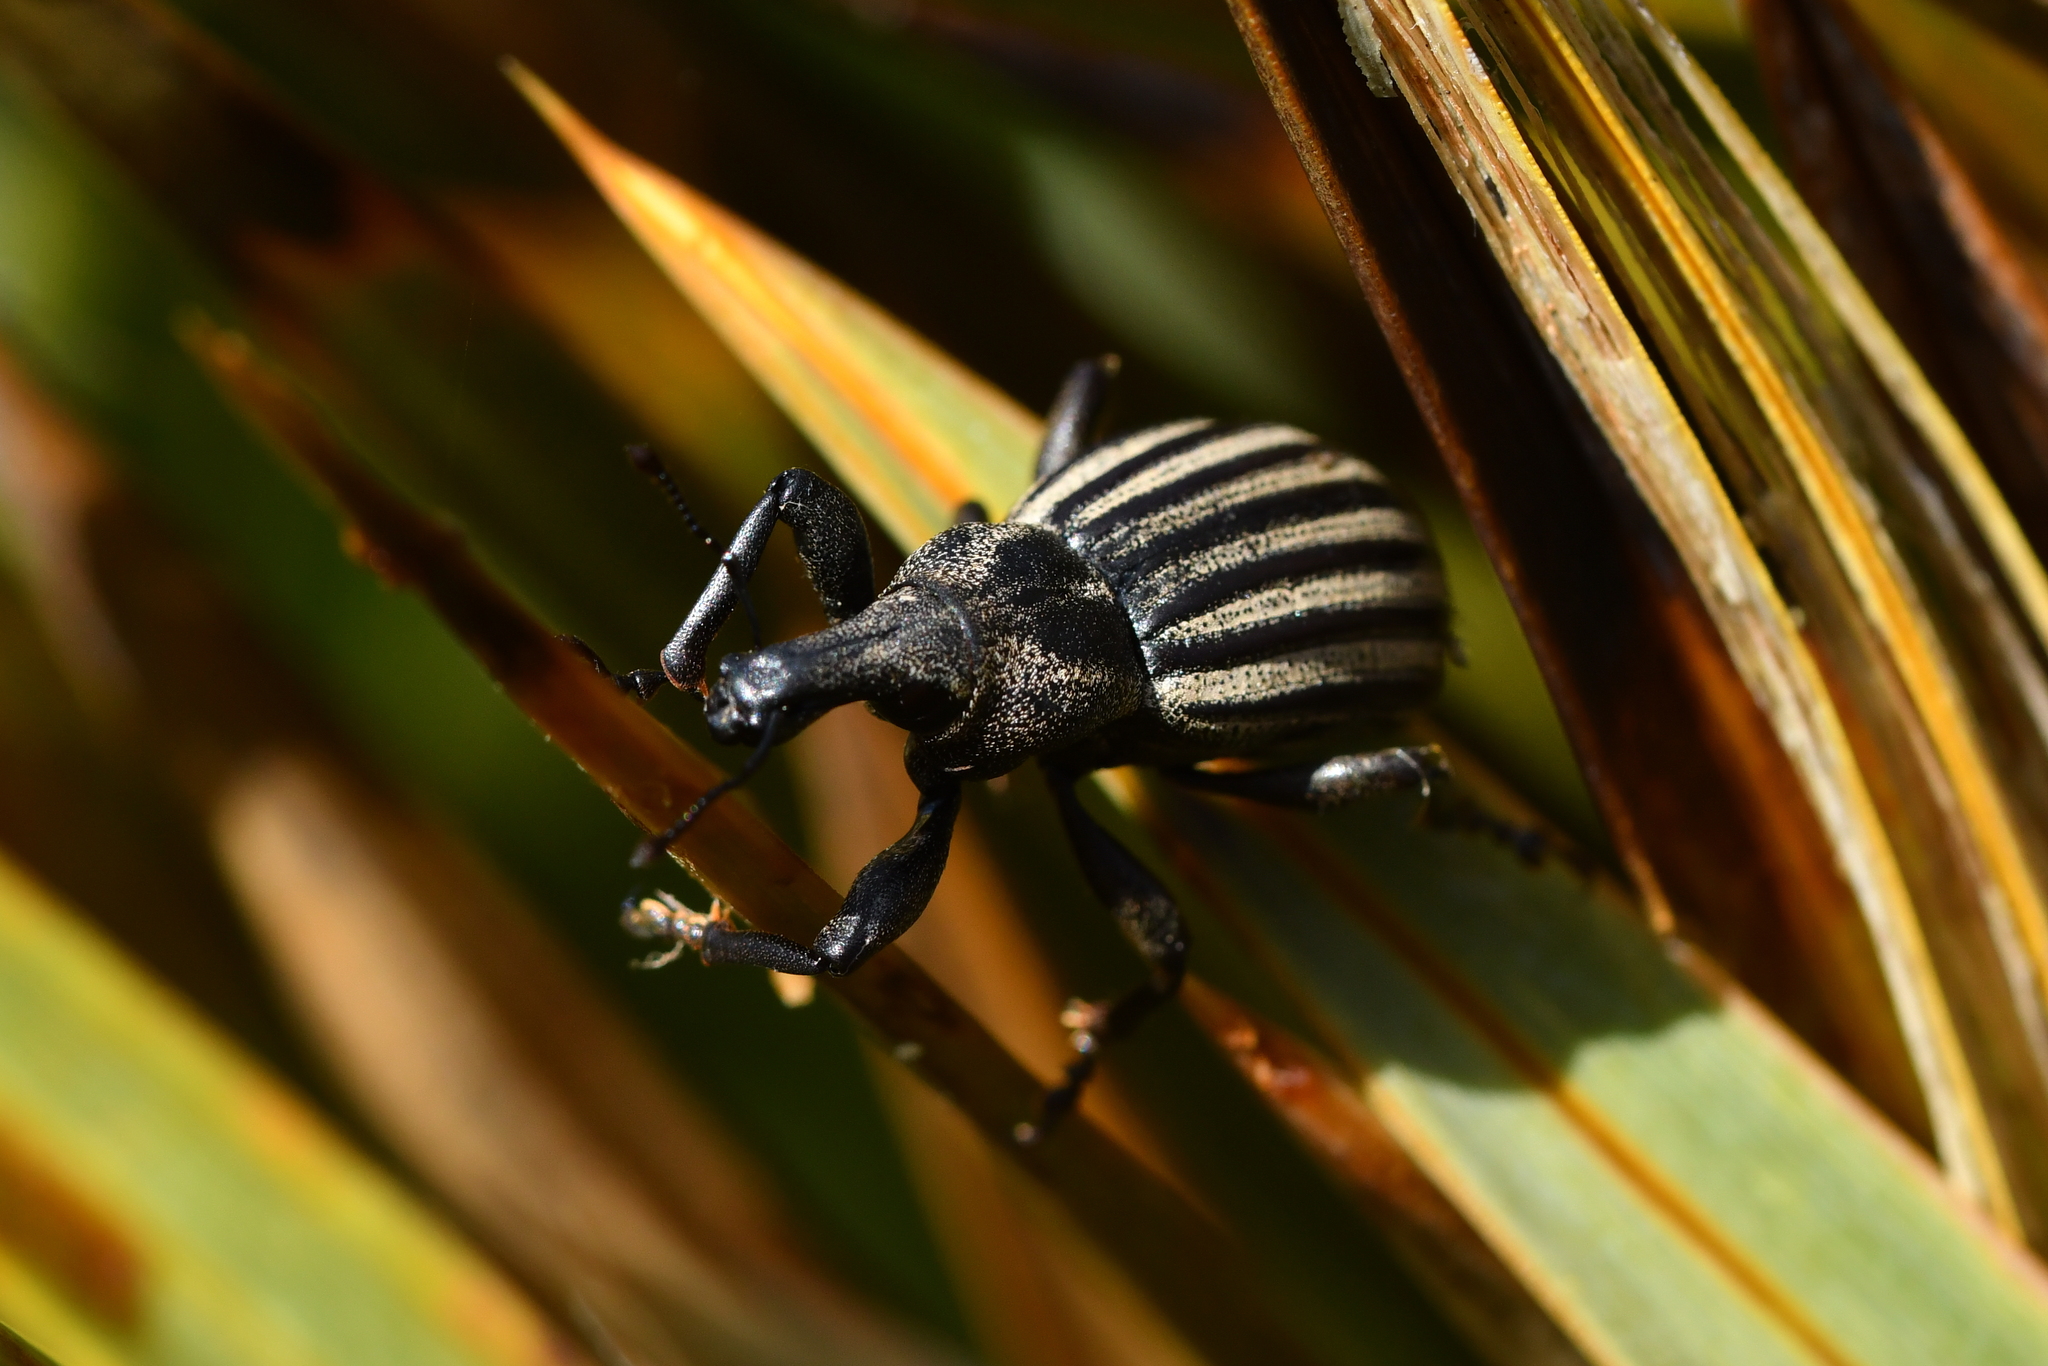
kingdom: Animalia
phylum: Arthropoda
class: Insecta
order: Coleoptera
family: Curculionidae
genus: Lyperobius
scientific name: Lyperobius carinatus
